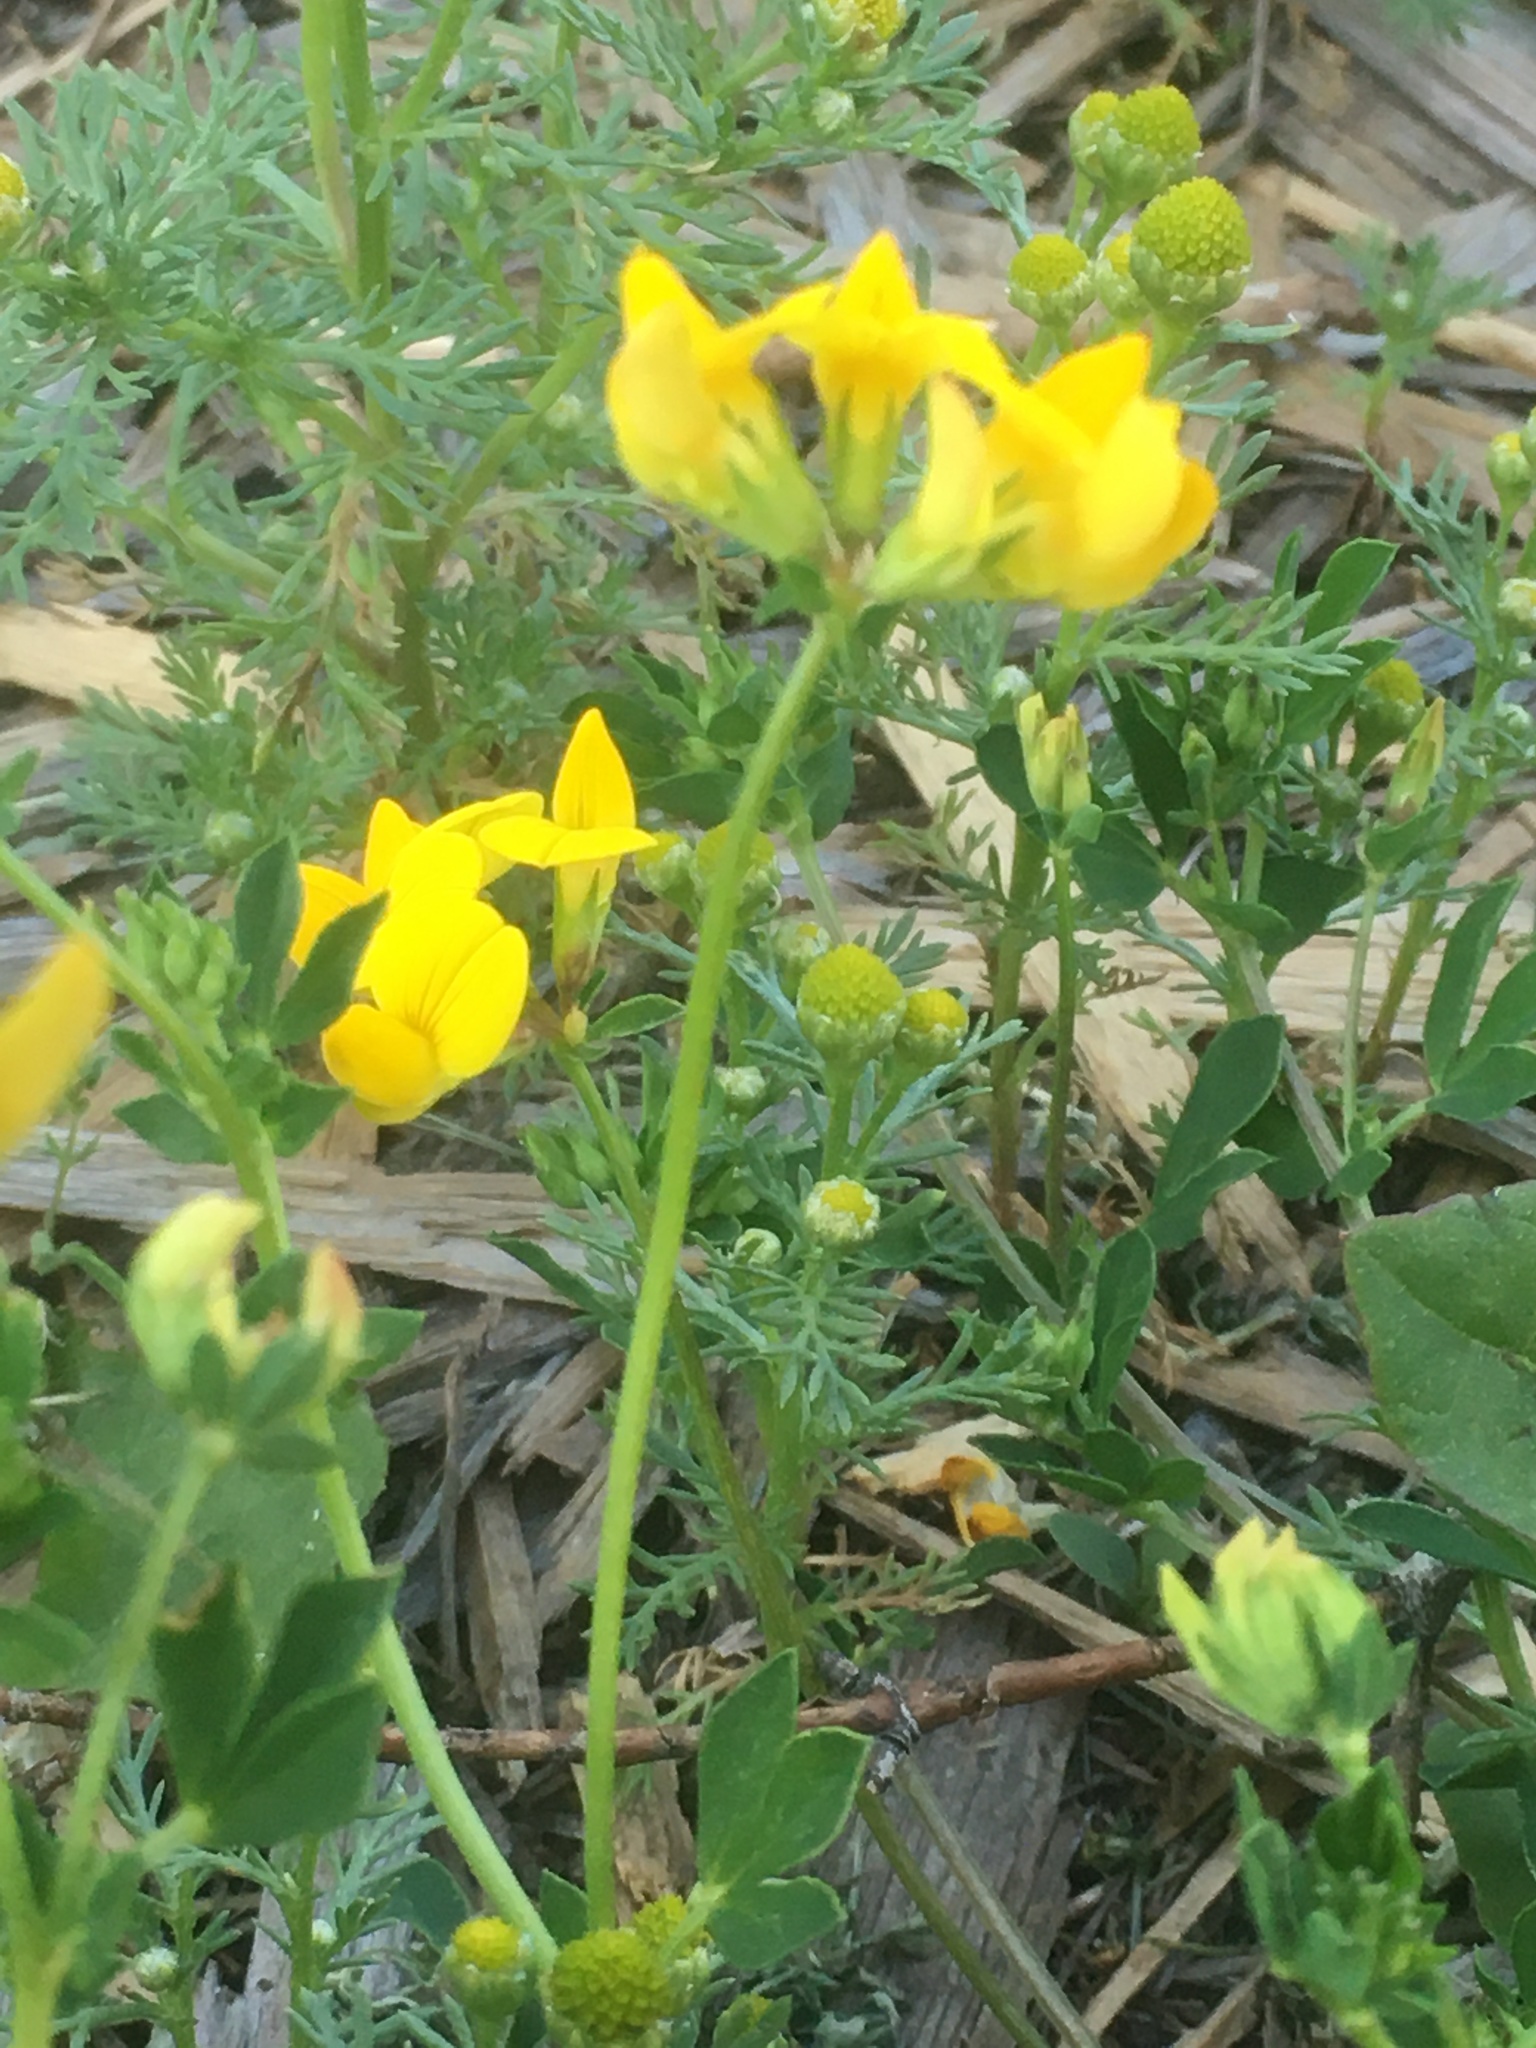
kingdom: Plantae
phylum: Tracheophyta
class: Magnoliopsida
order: Fabales
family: Fabaceae
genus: Lotus
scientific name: Lotus corniculatus
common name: Common bird's-foot-trefoil
